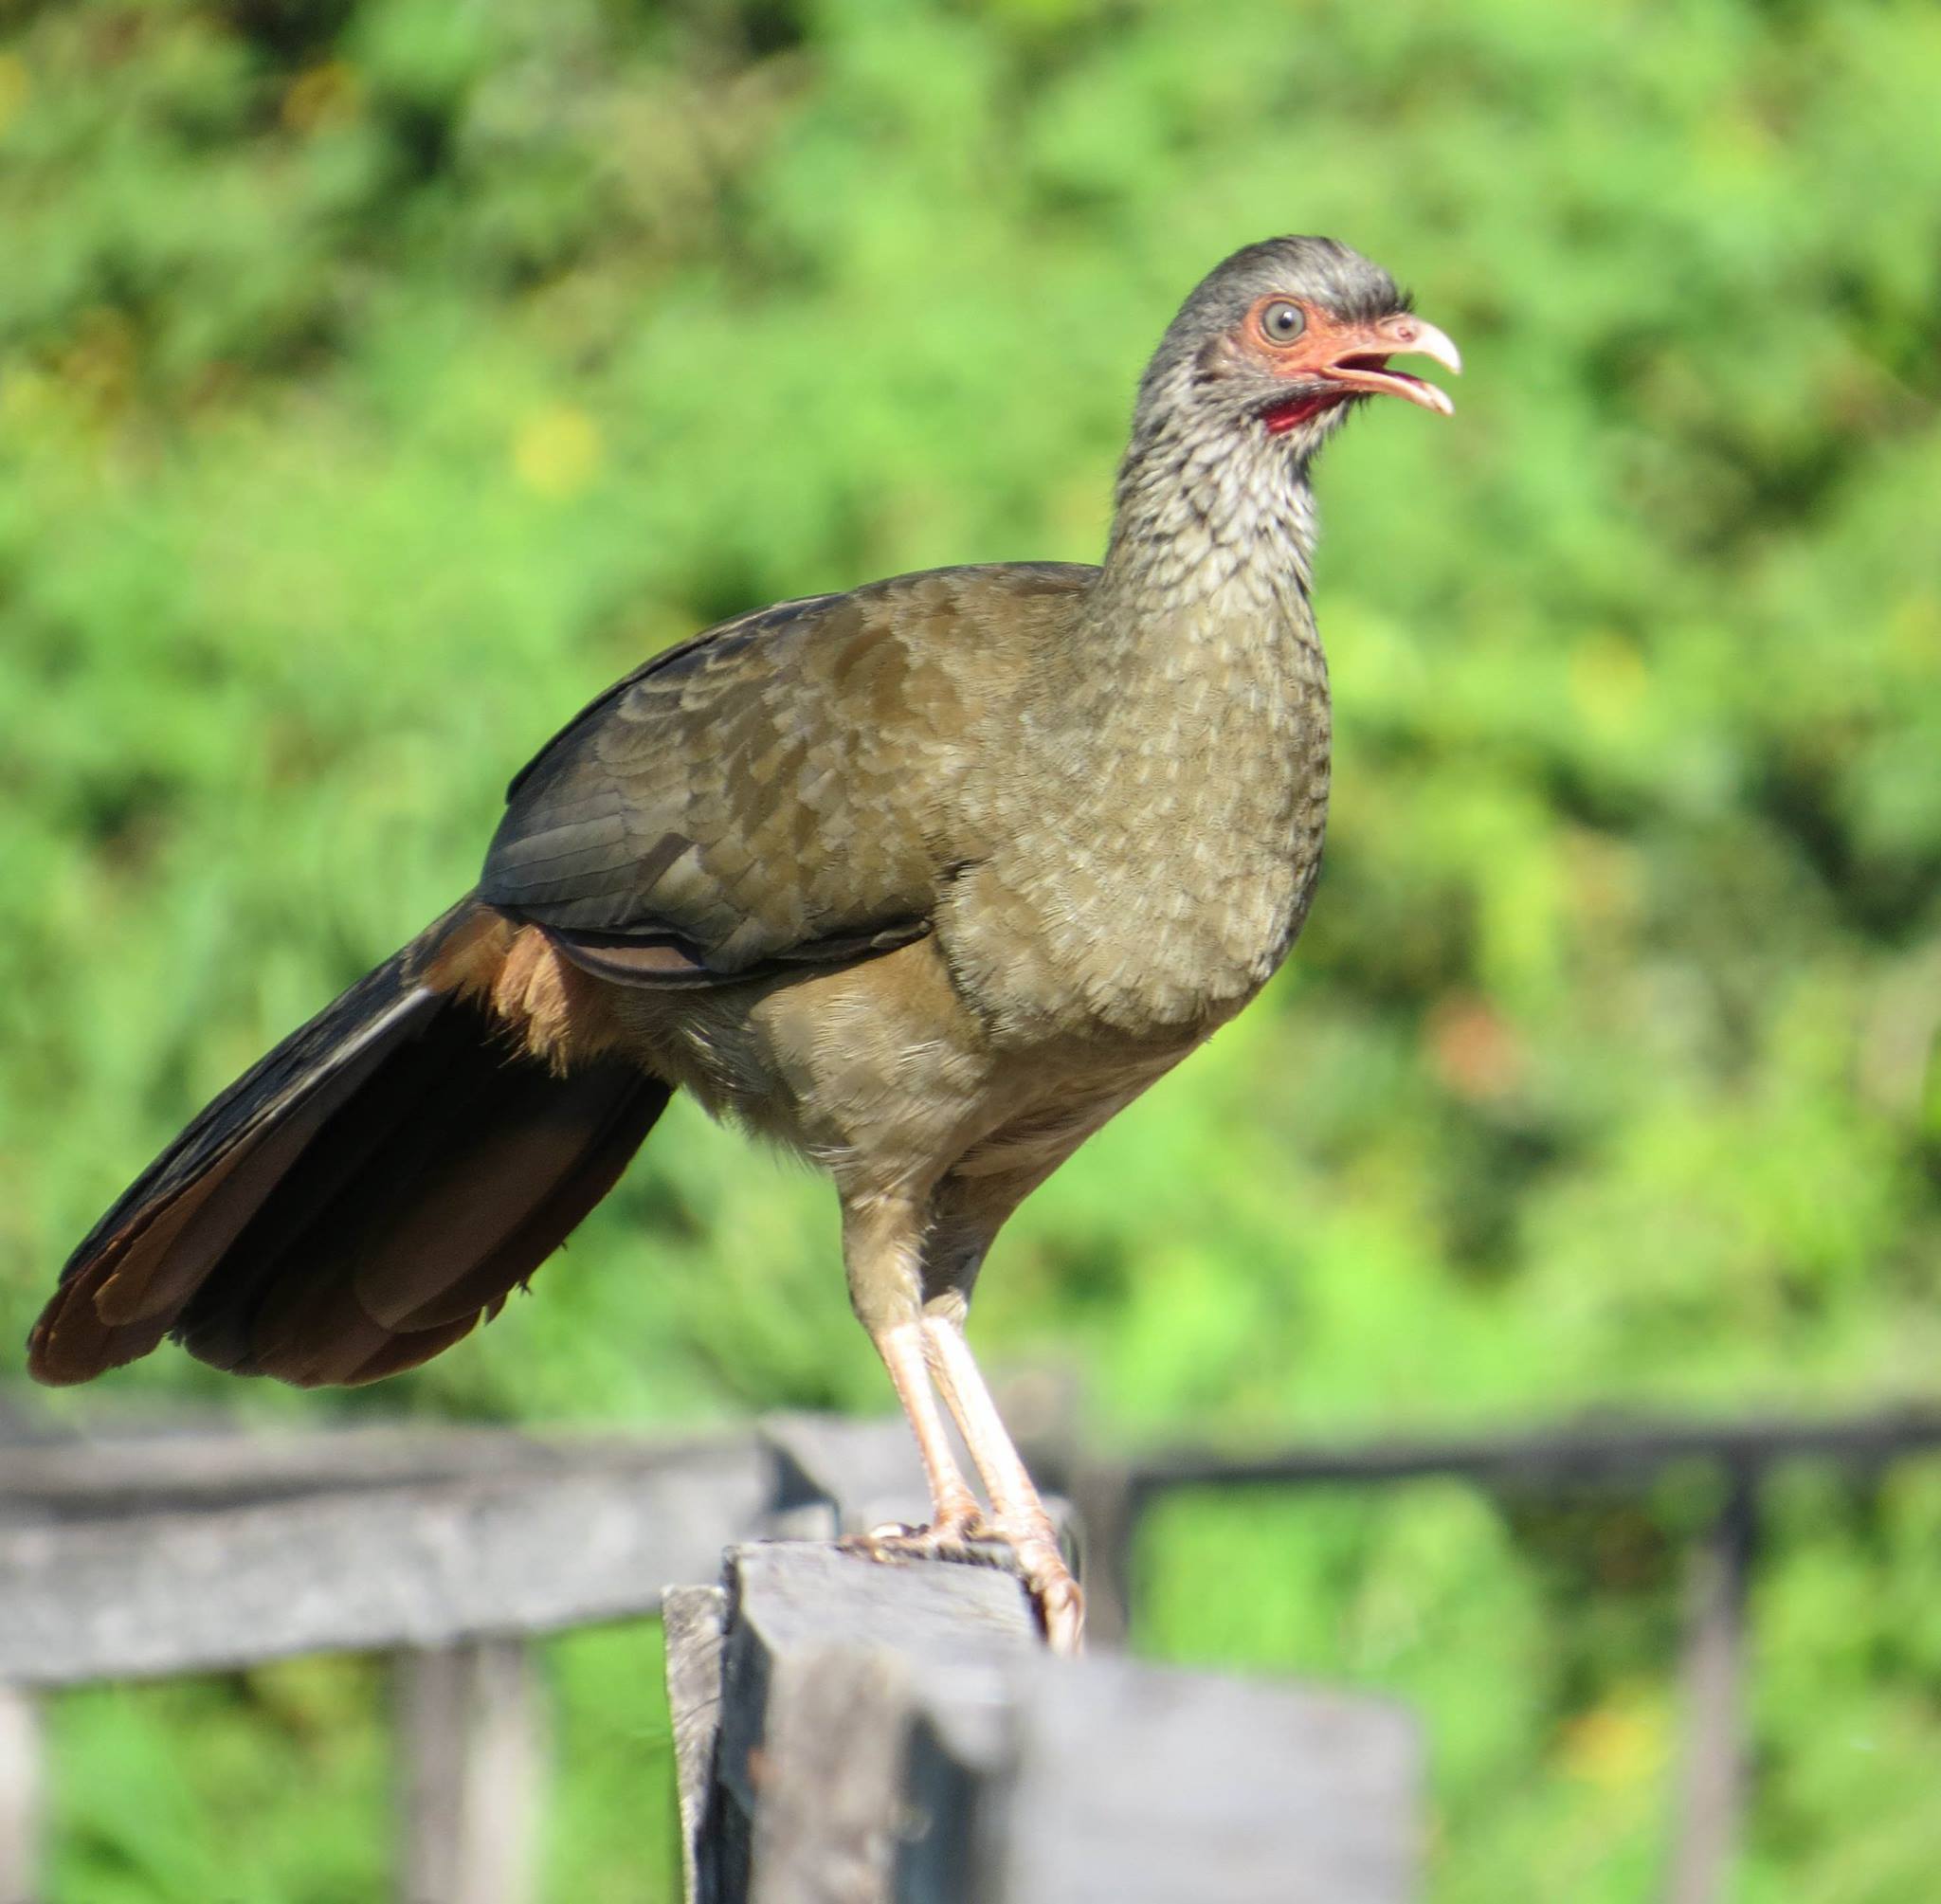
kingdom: Animalia
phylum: Chordata
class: Aves
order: Galliformes
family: Cracidae
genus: Ortalis
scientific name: Ortalis canicollis
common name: Chaco chachalaca
